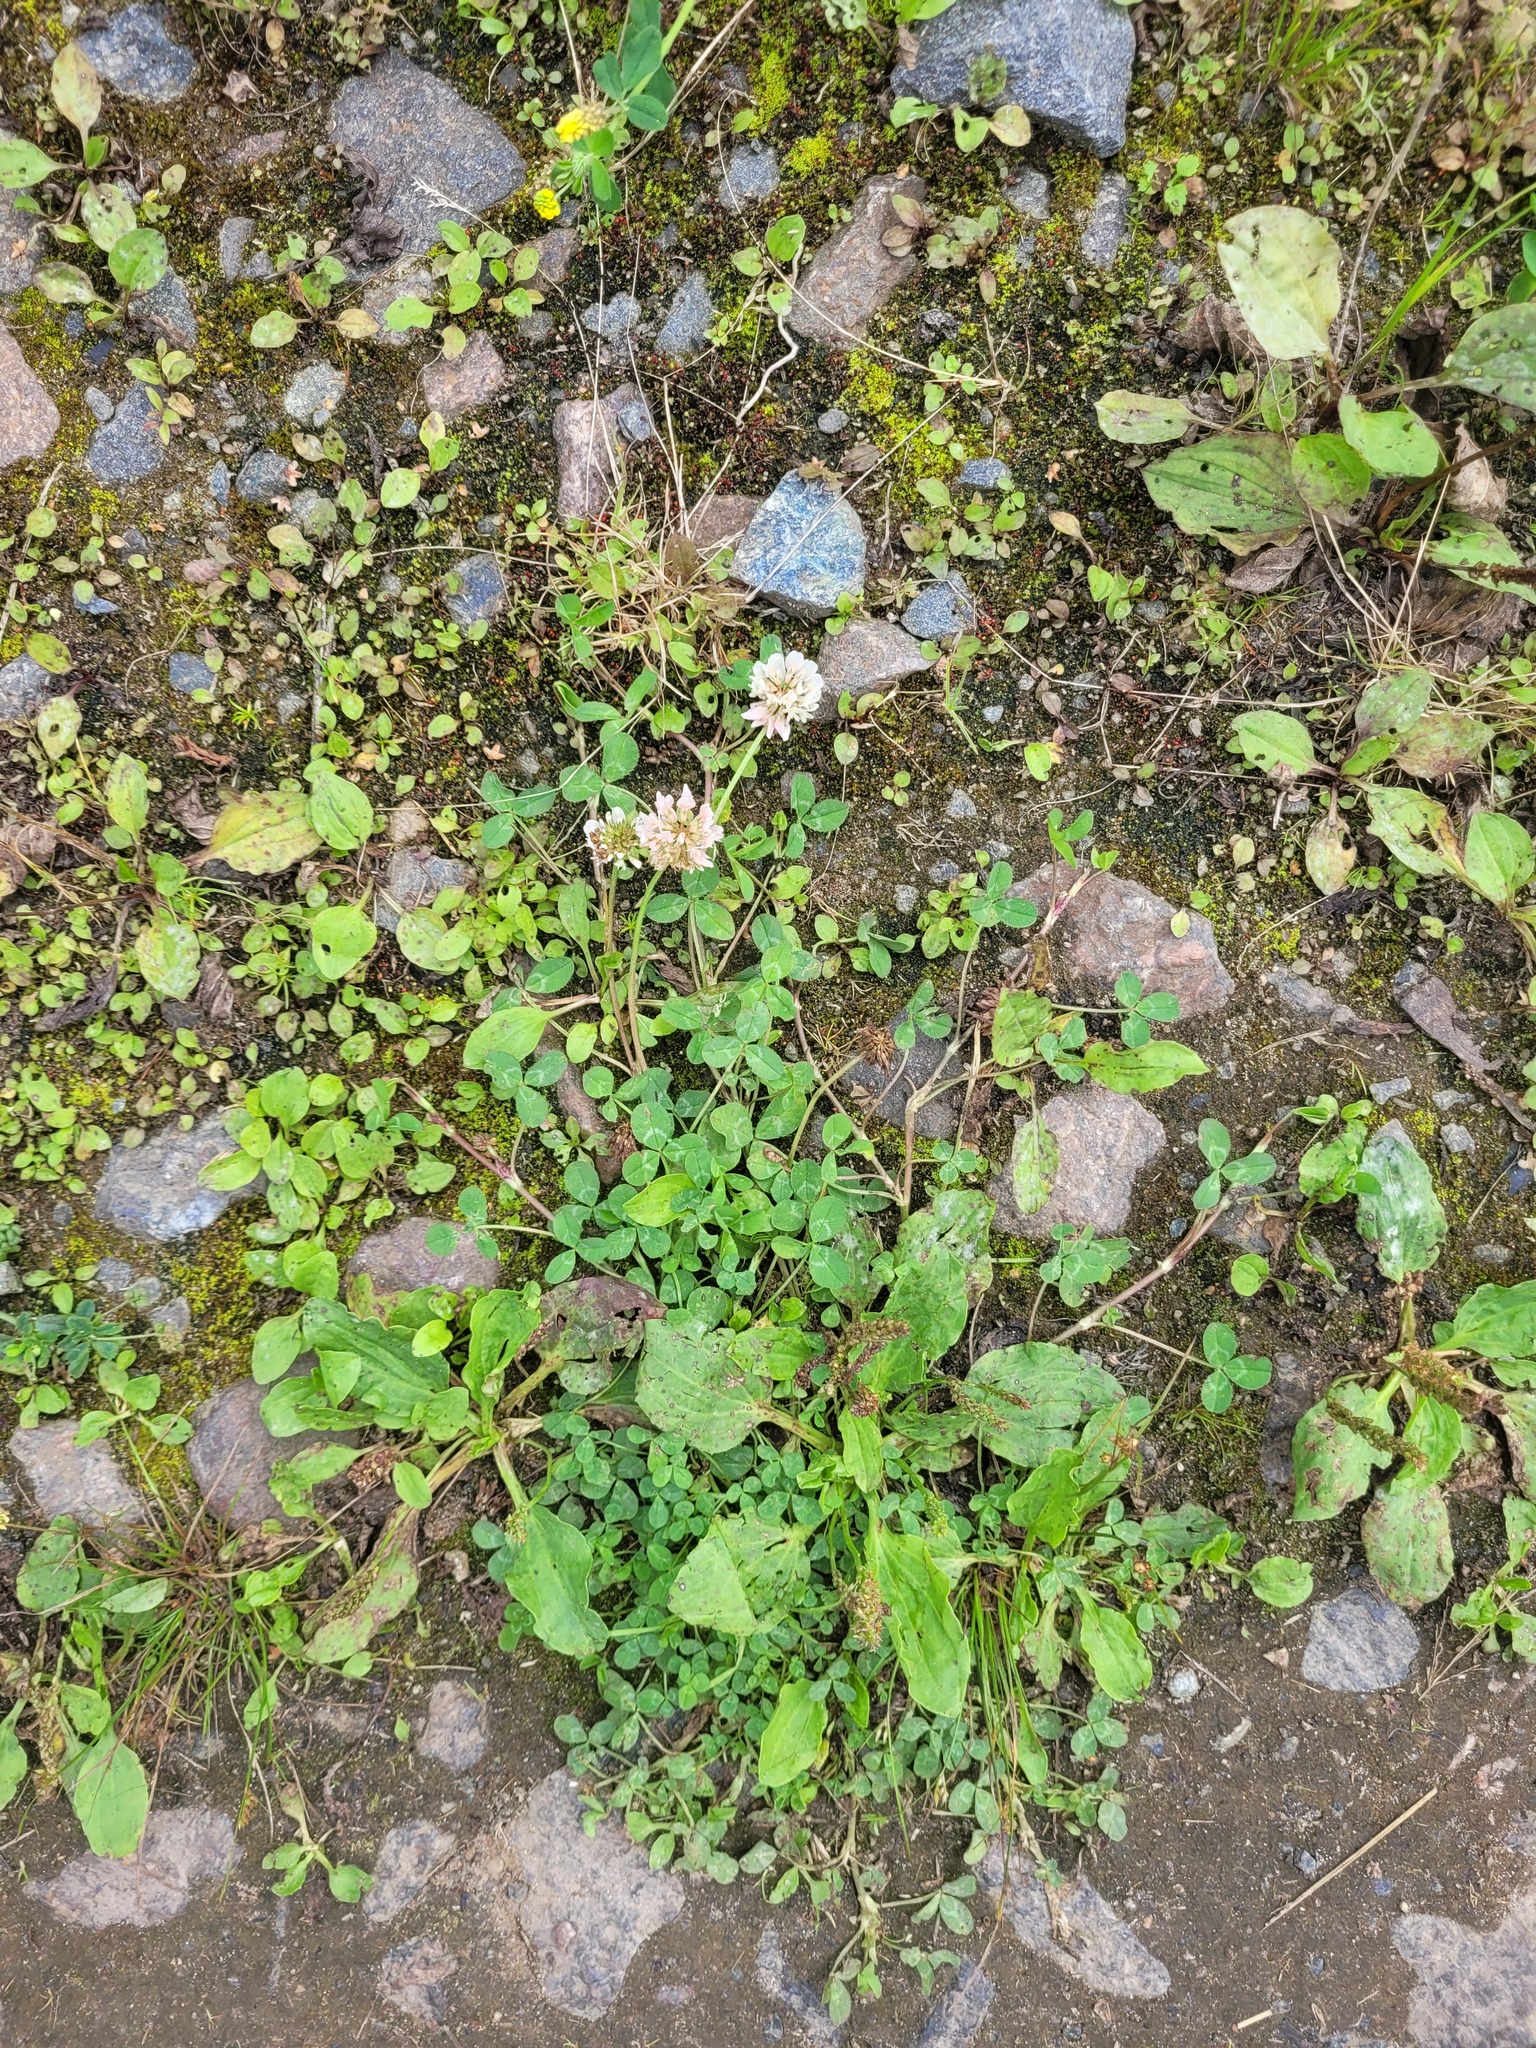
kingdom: Plantae
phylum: Tracheophyta
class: Magnoliopsida
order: Fabales
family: Fabaceae
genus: Trifolium
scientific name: Trifolium repens
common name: White clover
